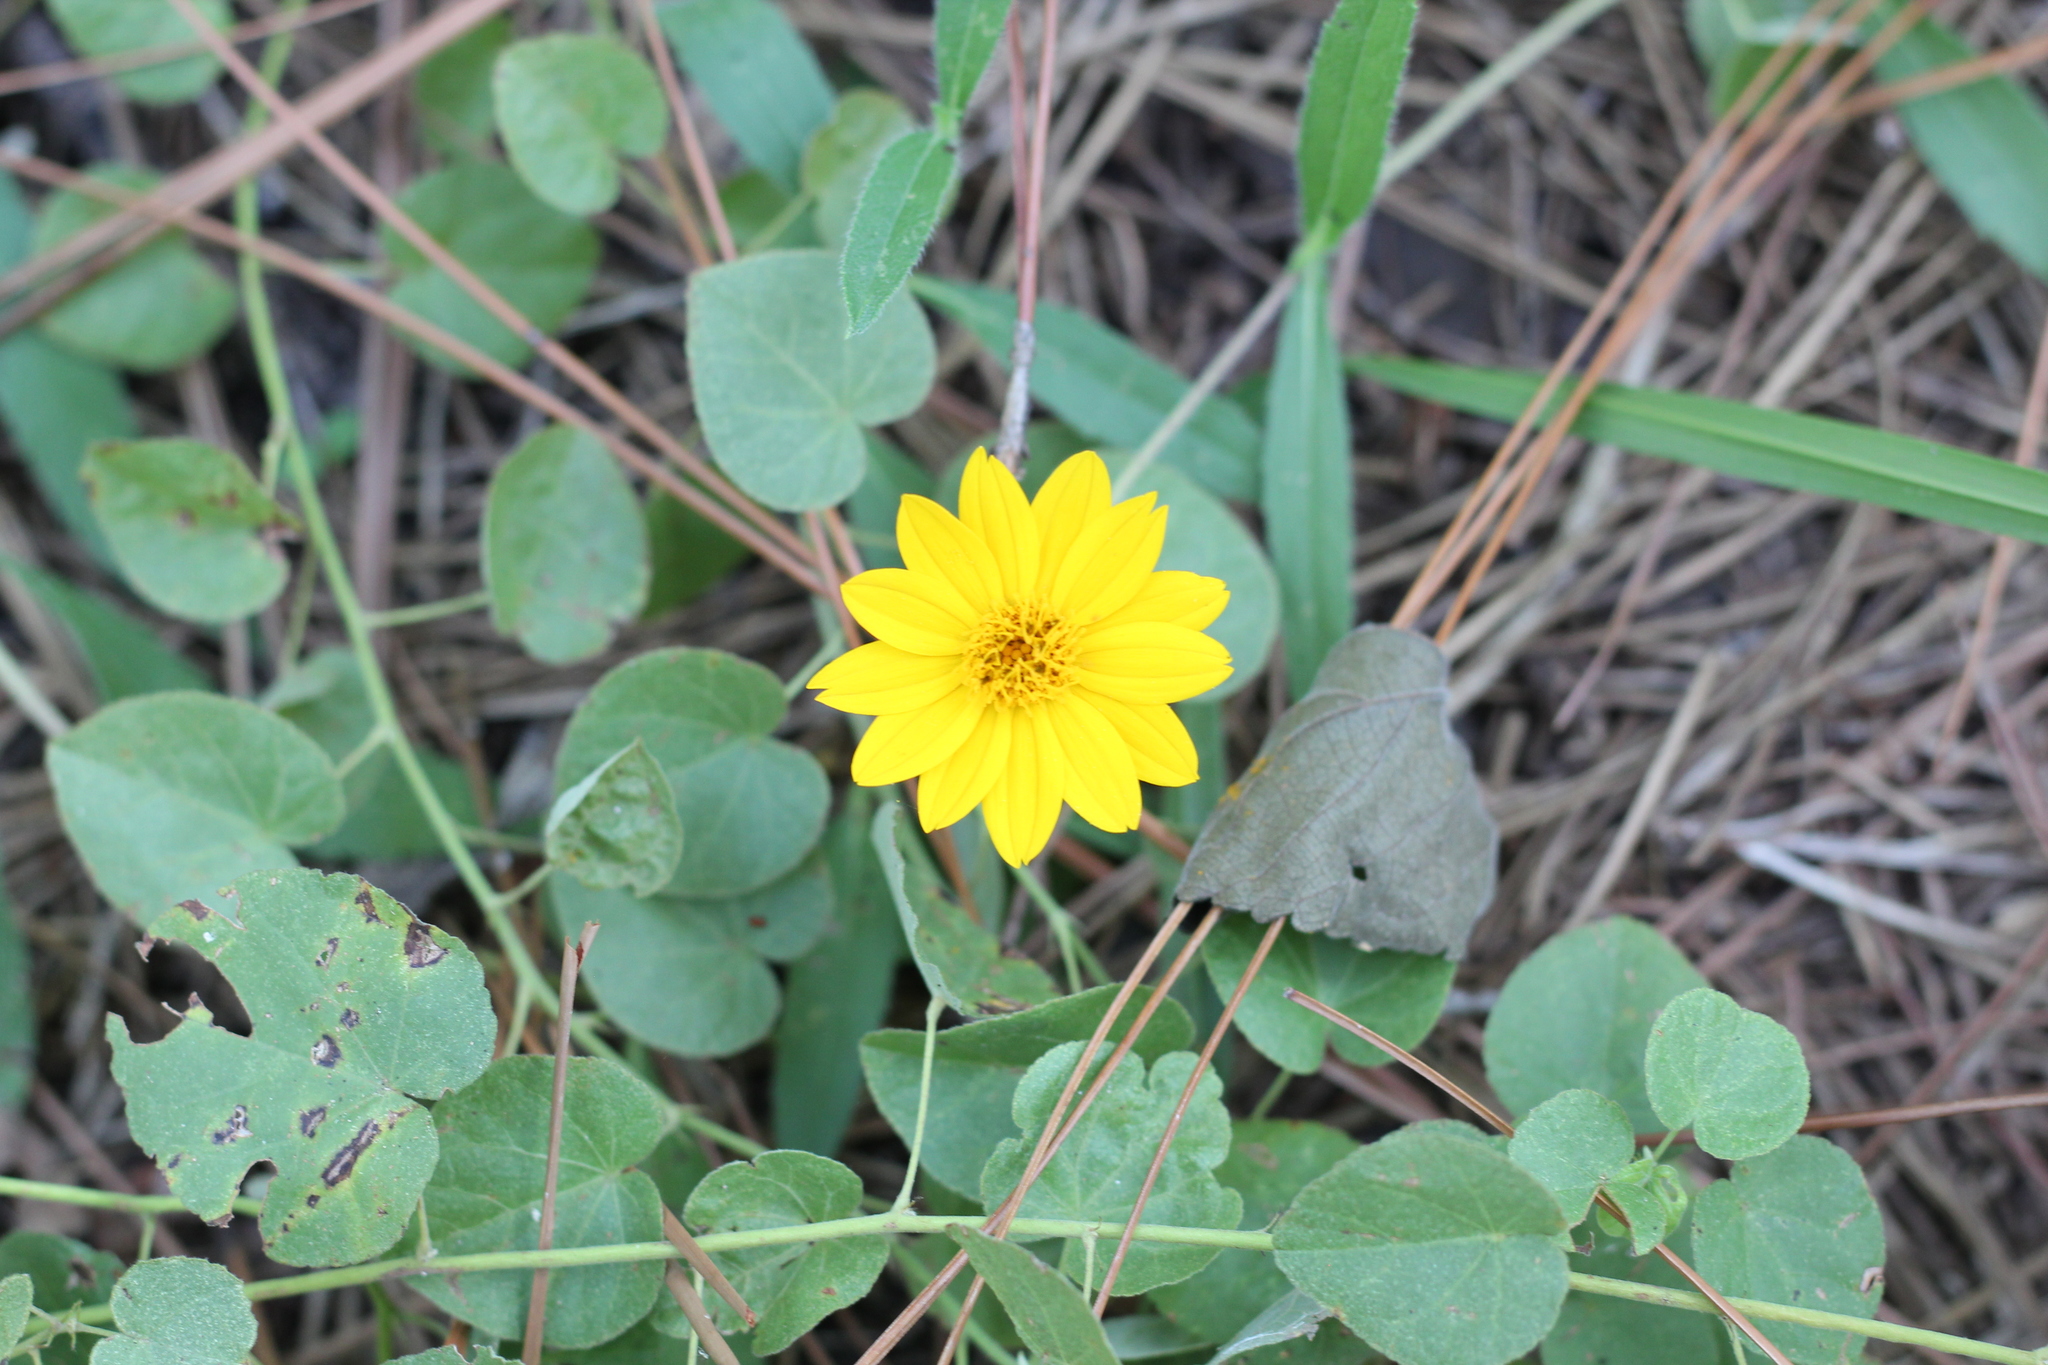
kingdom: Plantae
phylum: Tracheophyta
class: Magnoliopsida
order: Asterales
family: Asteraceae
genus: Wedelia
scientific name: Wedelia montevidensis
